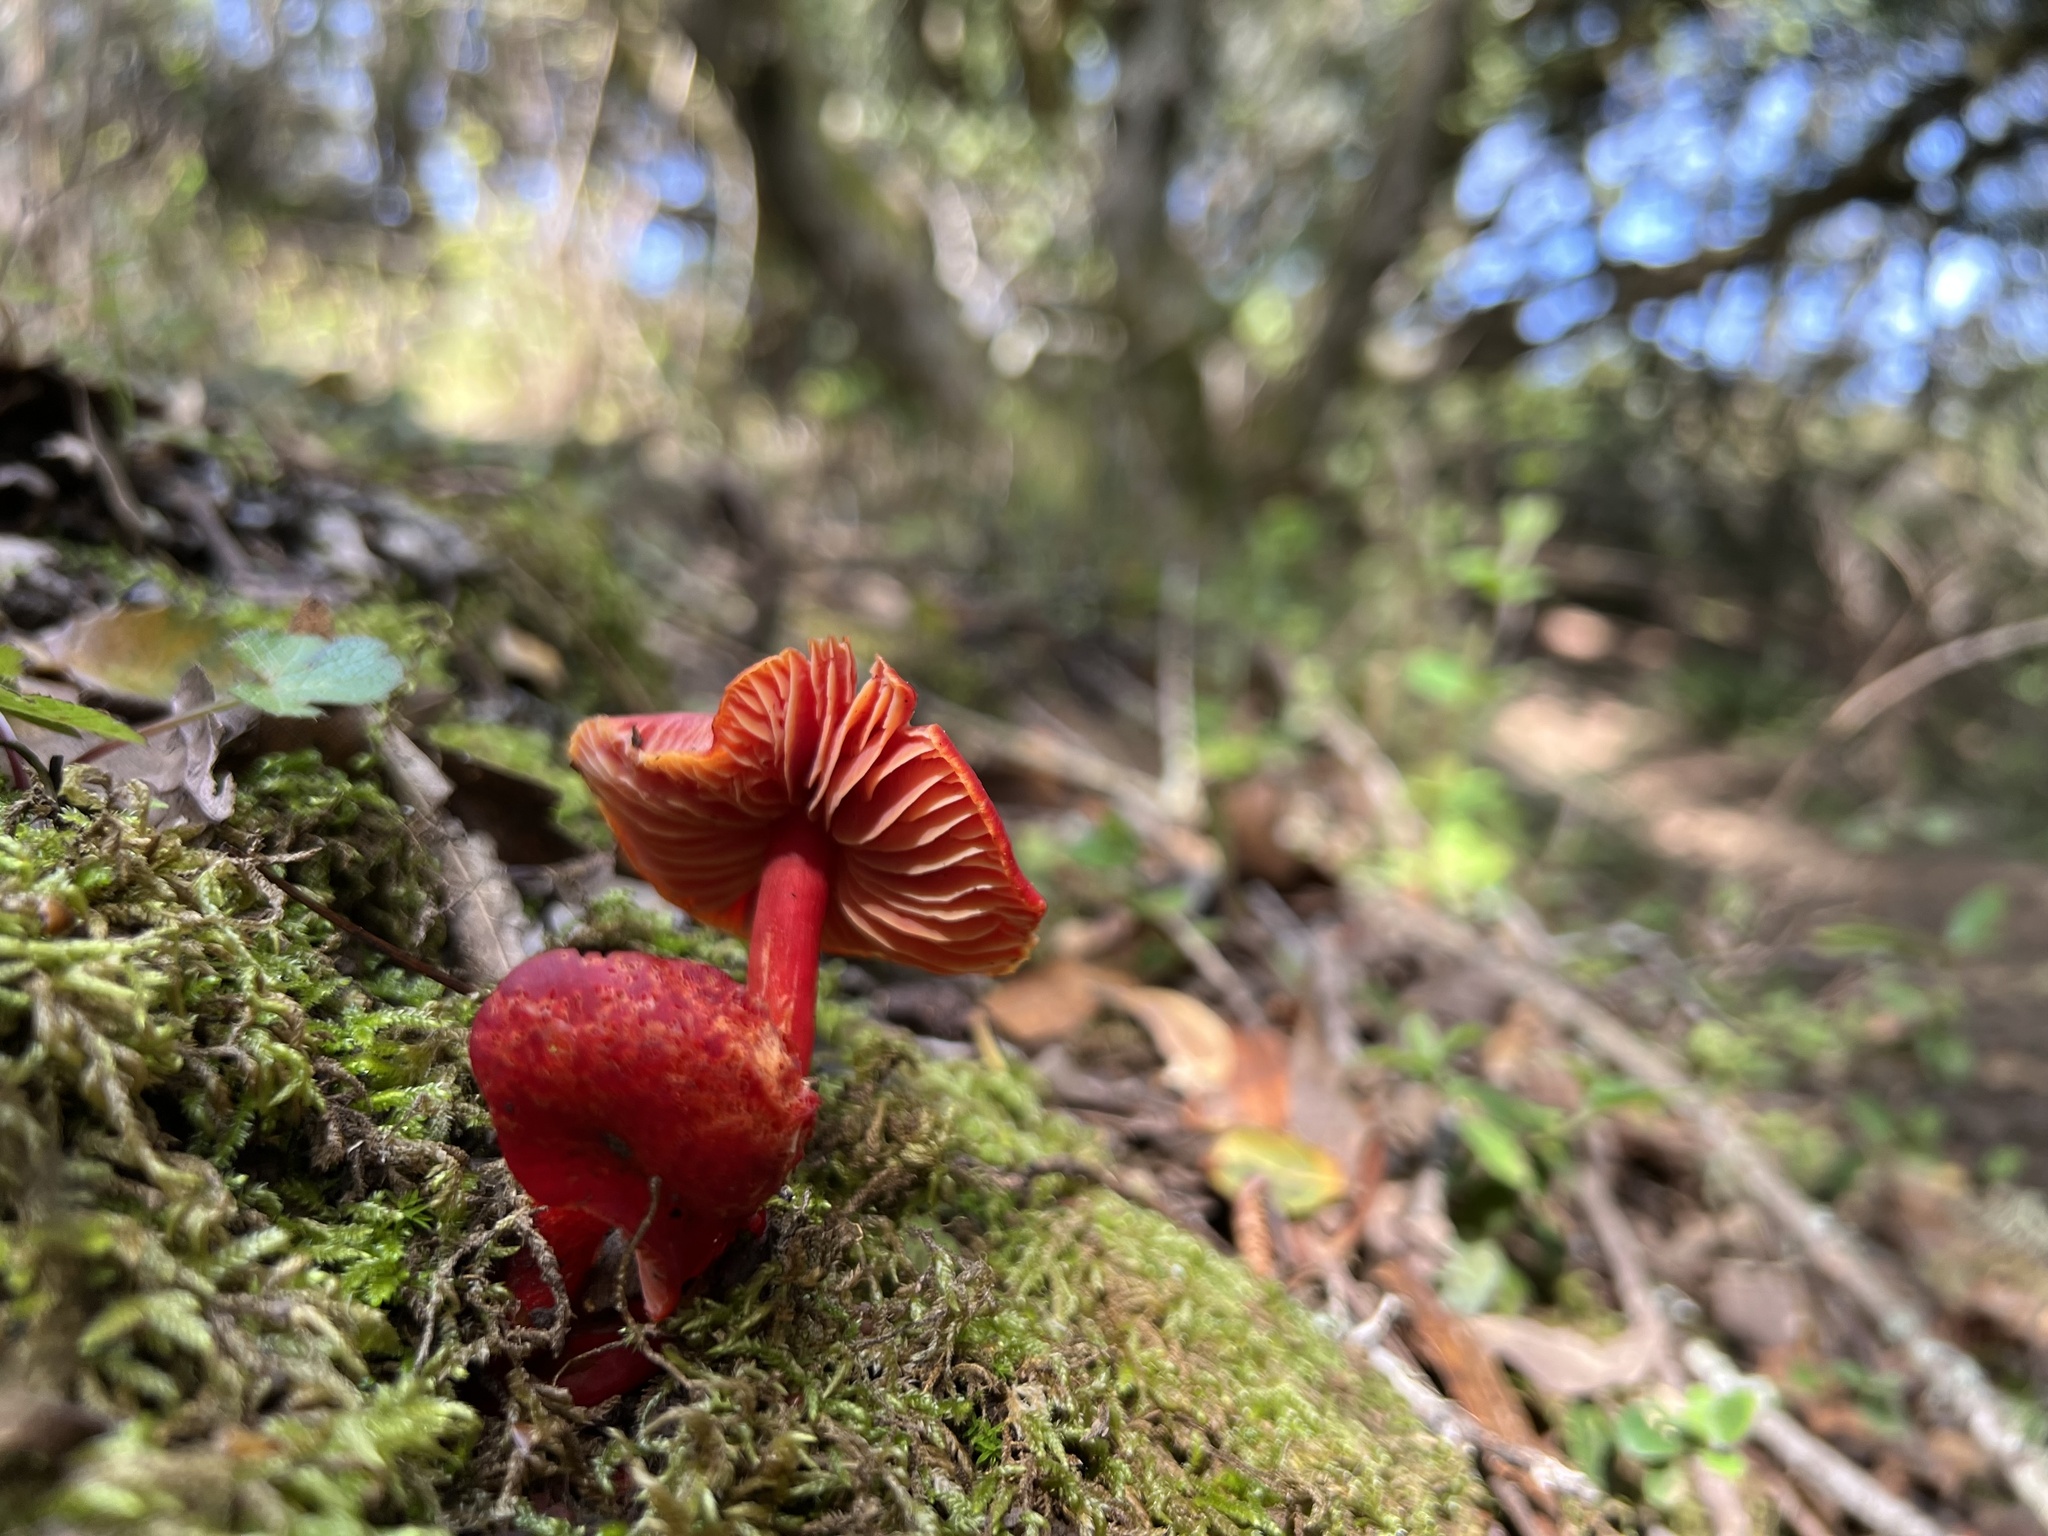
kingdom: Fungi
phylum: Basidiomycota
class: Agaricomycetes
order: Agaricales
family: Hygrophoraceae
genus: Hygrocybe
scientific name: Hygrocybe coccinea
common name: Scarlet hood
